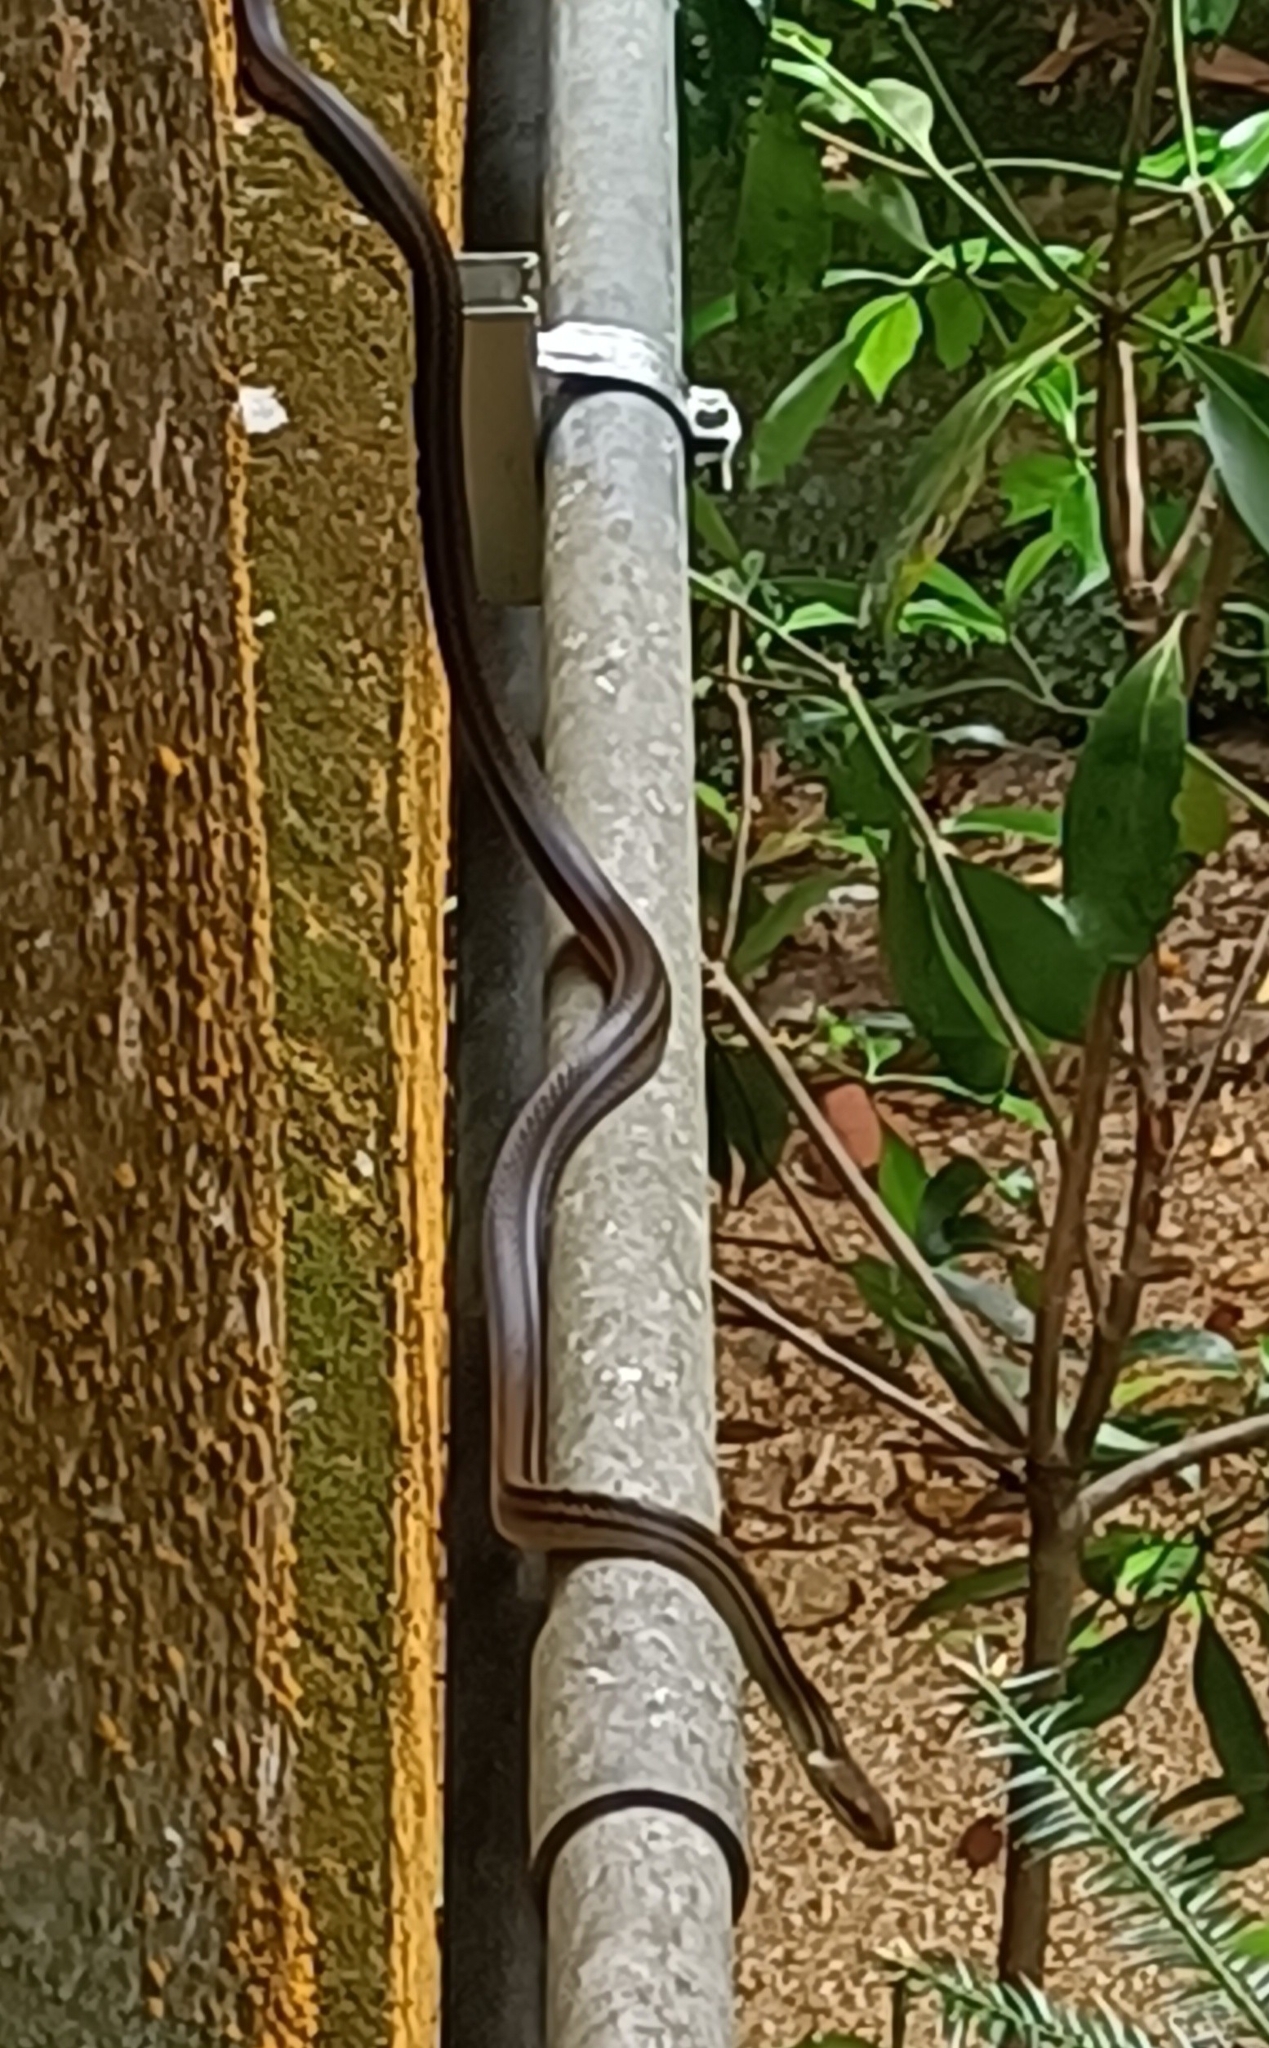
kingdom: Animalia
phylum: Chordata
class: Squamata
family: Colubridae
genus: Elaphe
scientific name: Elaphe quadrivirgata
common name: Japanese four-lined ratsnake
